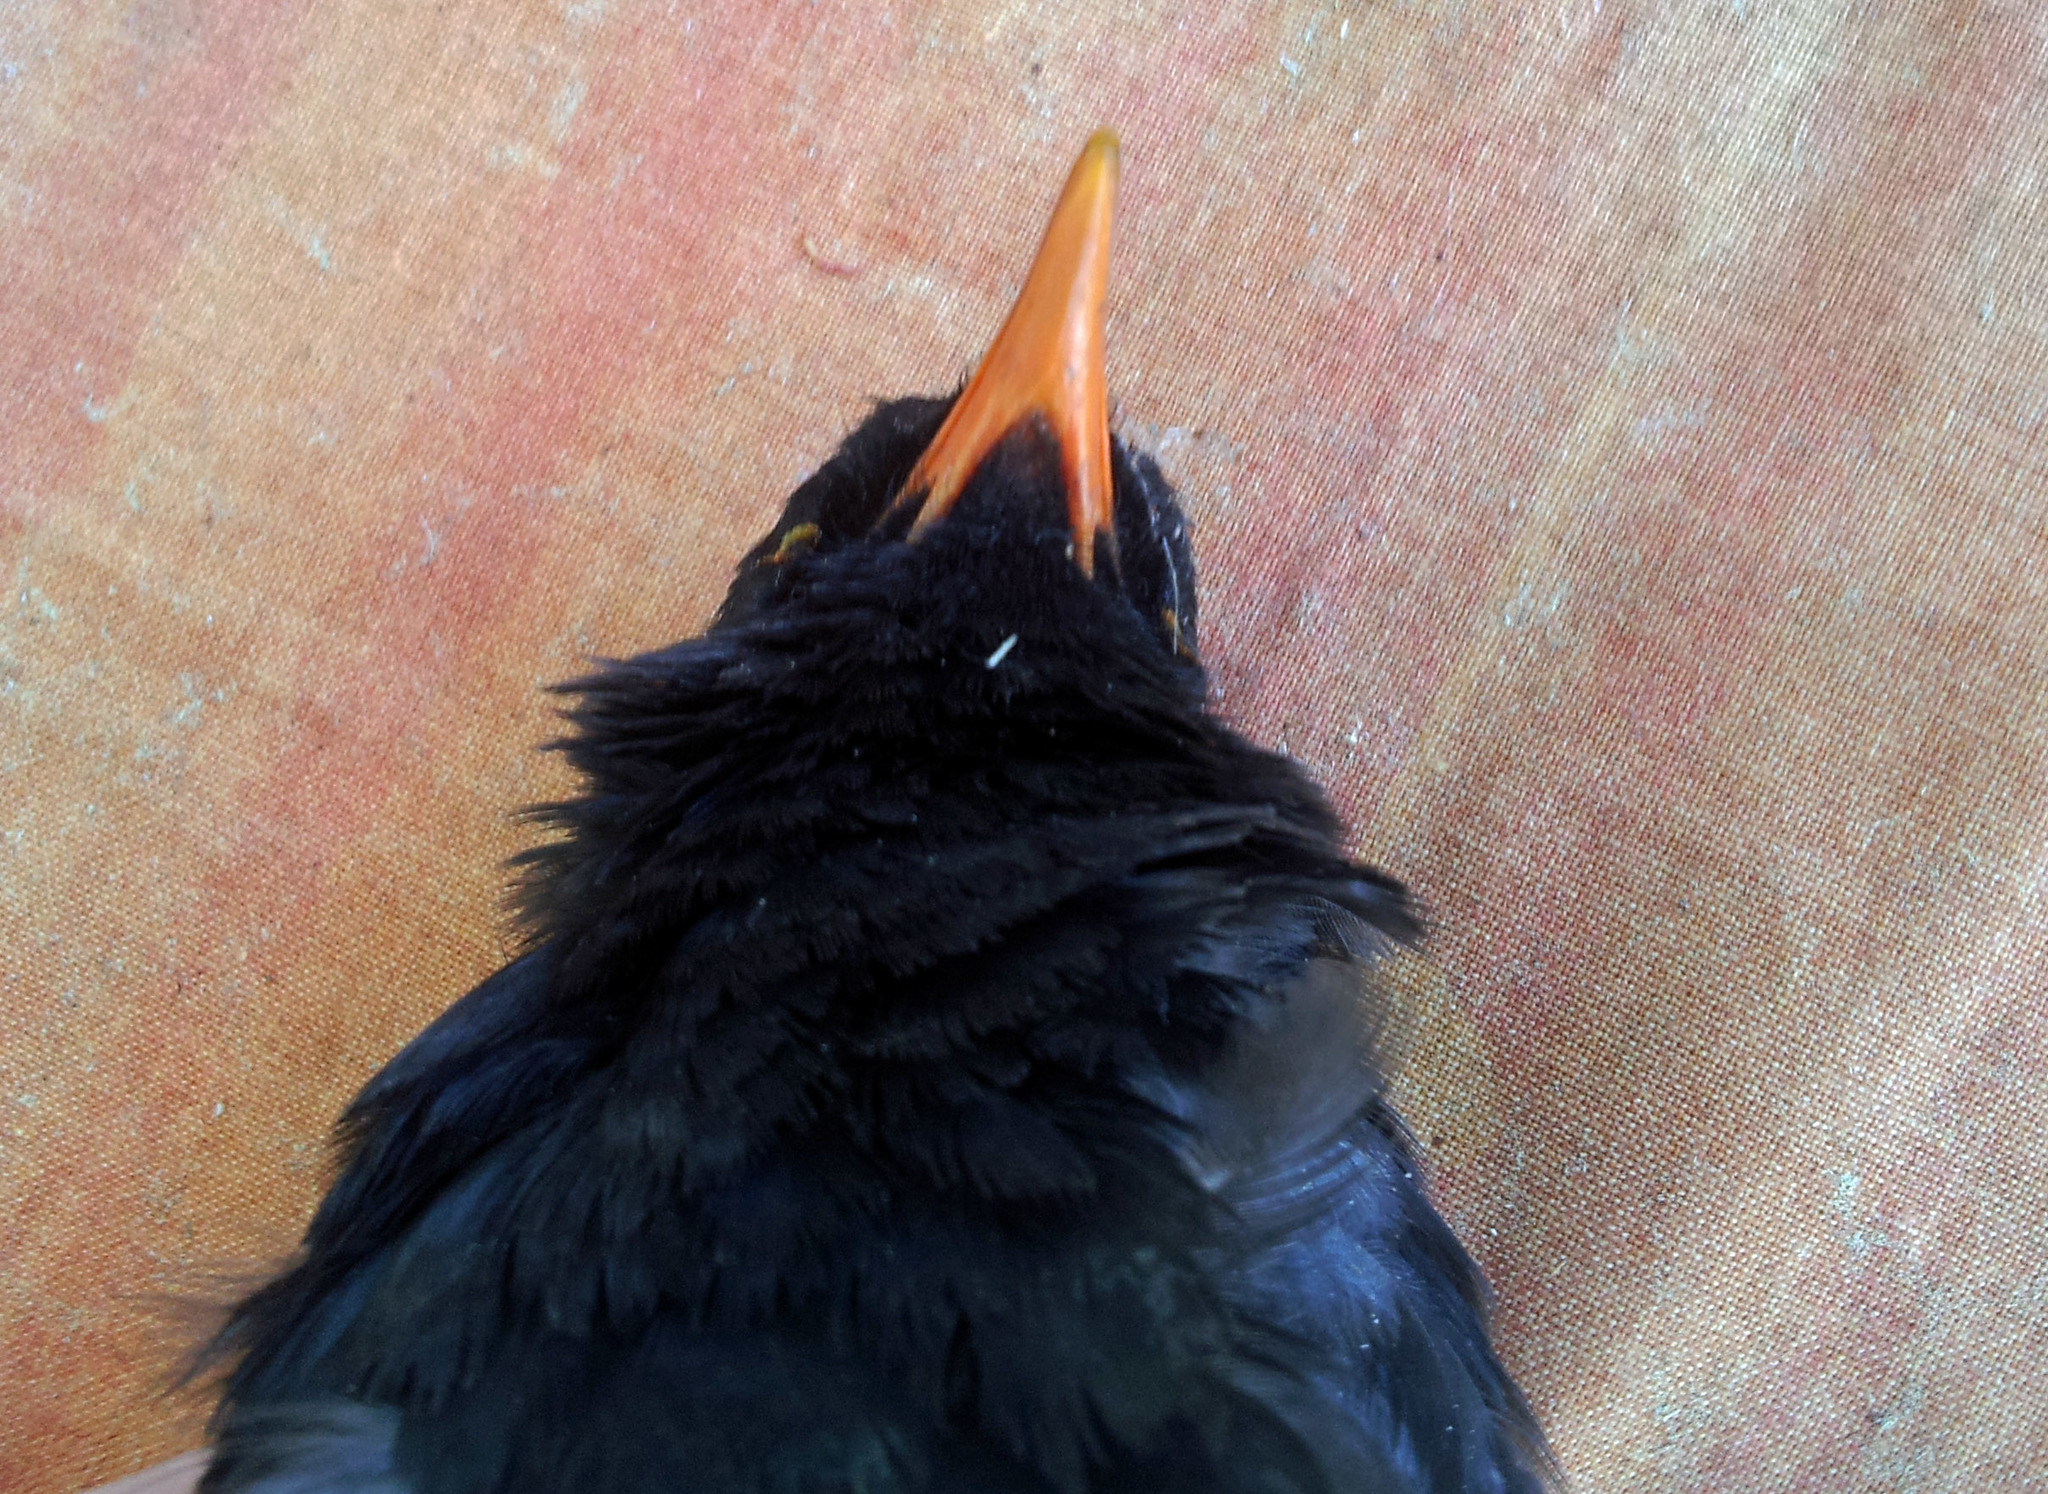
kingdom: Animalia
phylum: Chordata
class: Aves
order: Passeriformes
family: Turdidae
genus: Turdus
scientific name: Turdus merula
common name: Common blackbird
